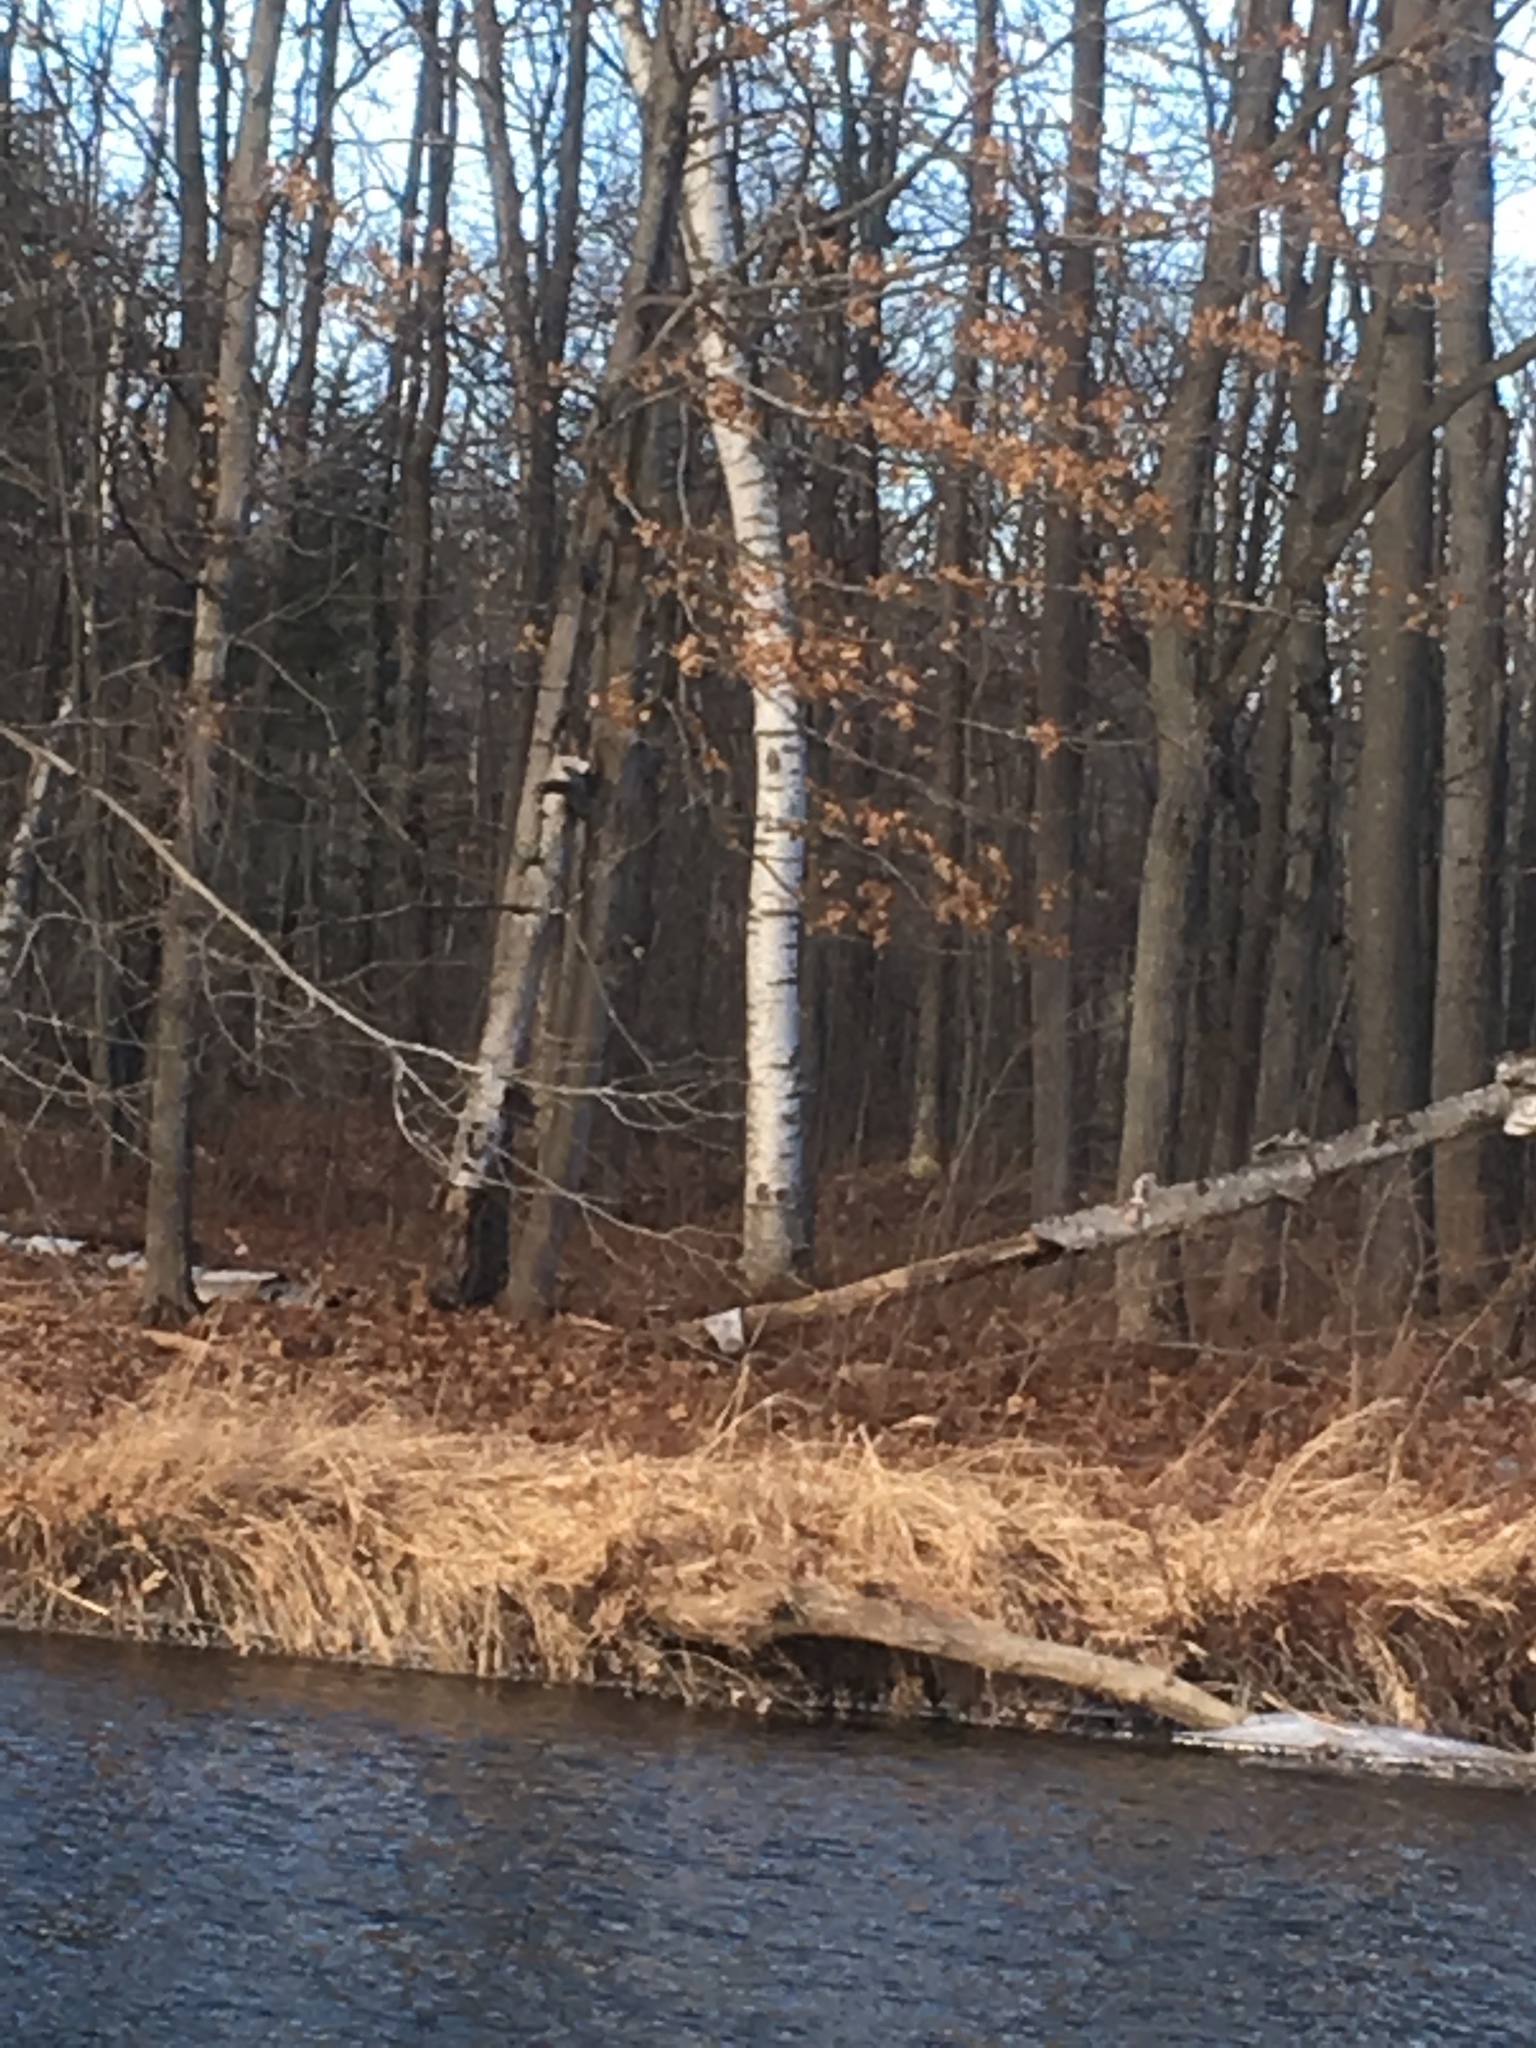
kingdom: Plantae
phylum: Tracheophyta
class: Magnoliopsida
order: Fagales
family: Betulaceae
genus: Betula
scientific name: Betula
